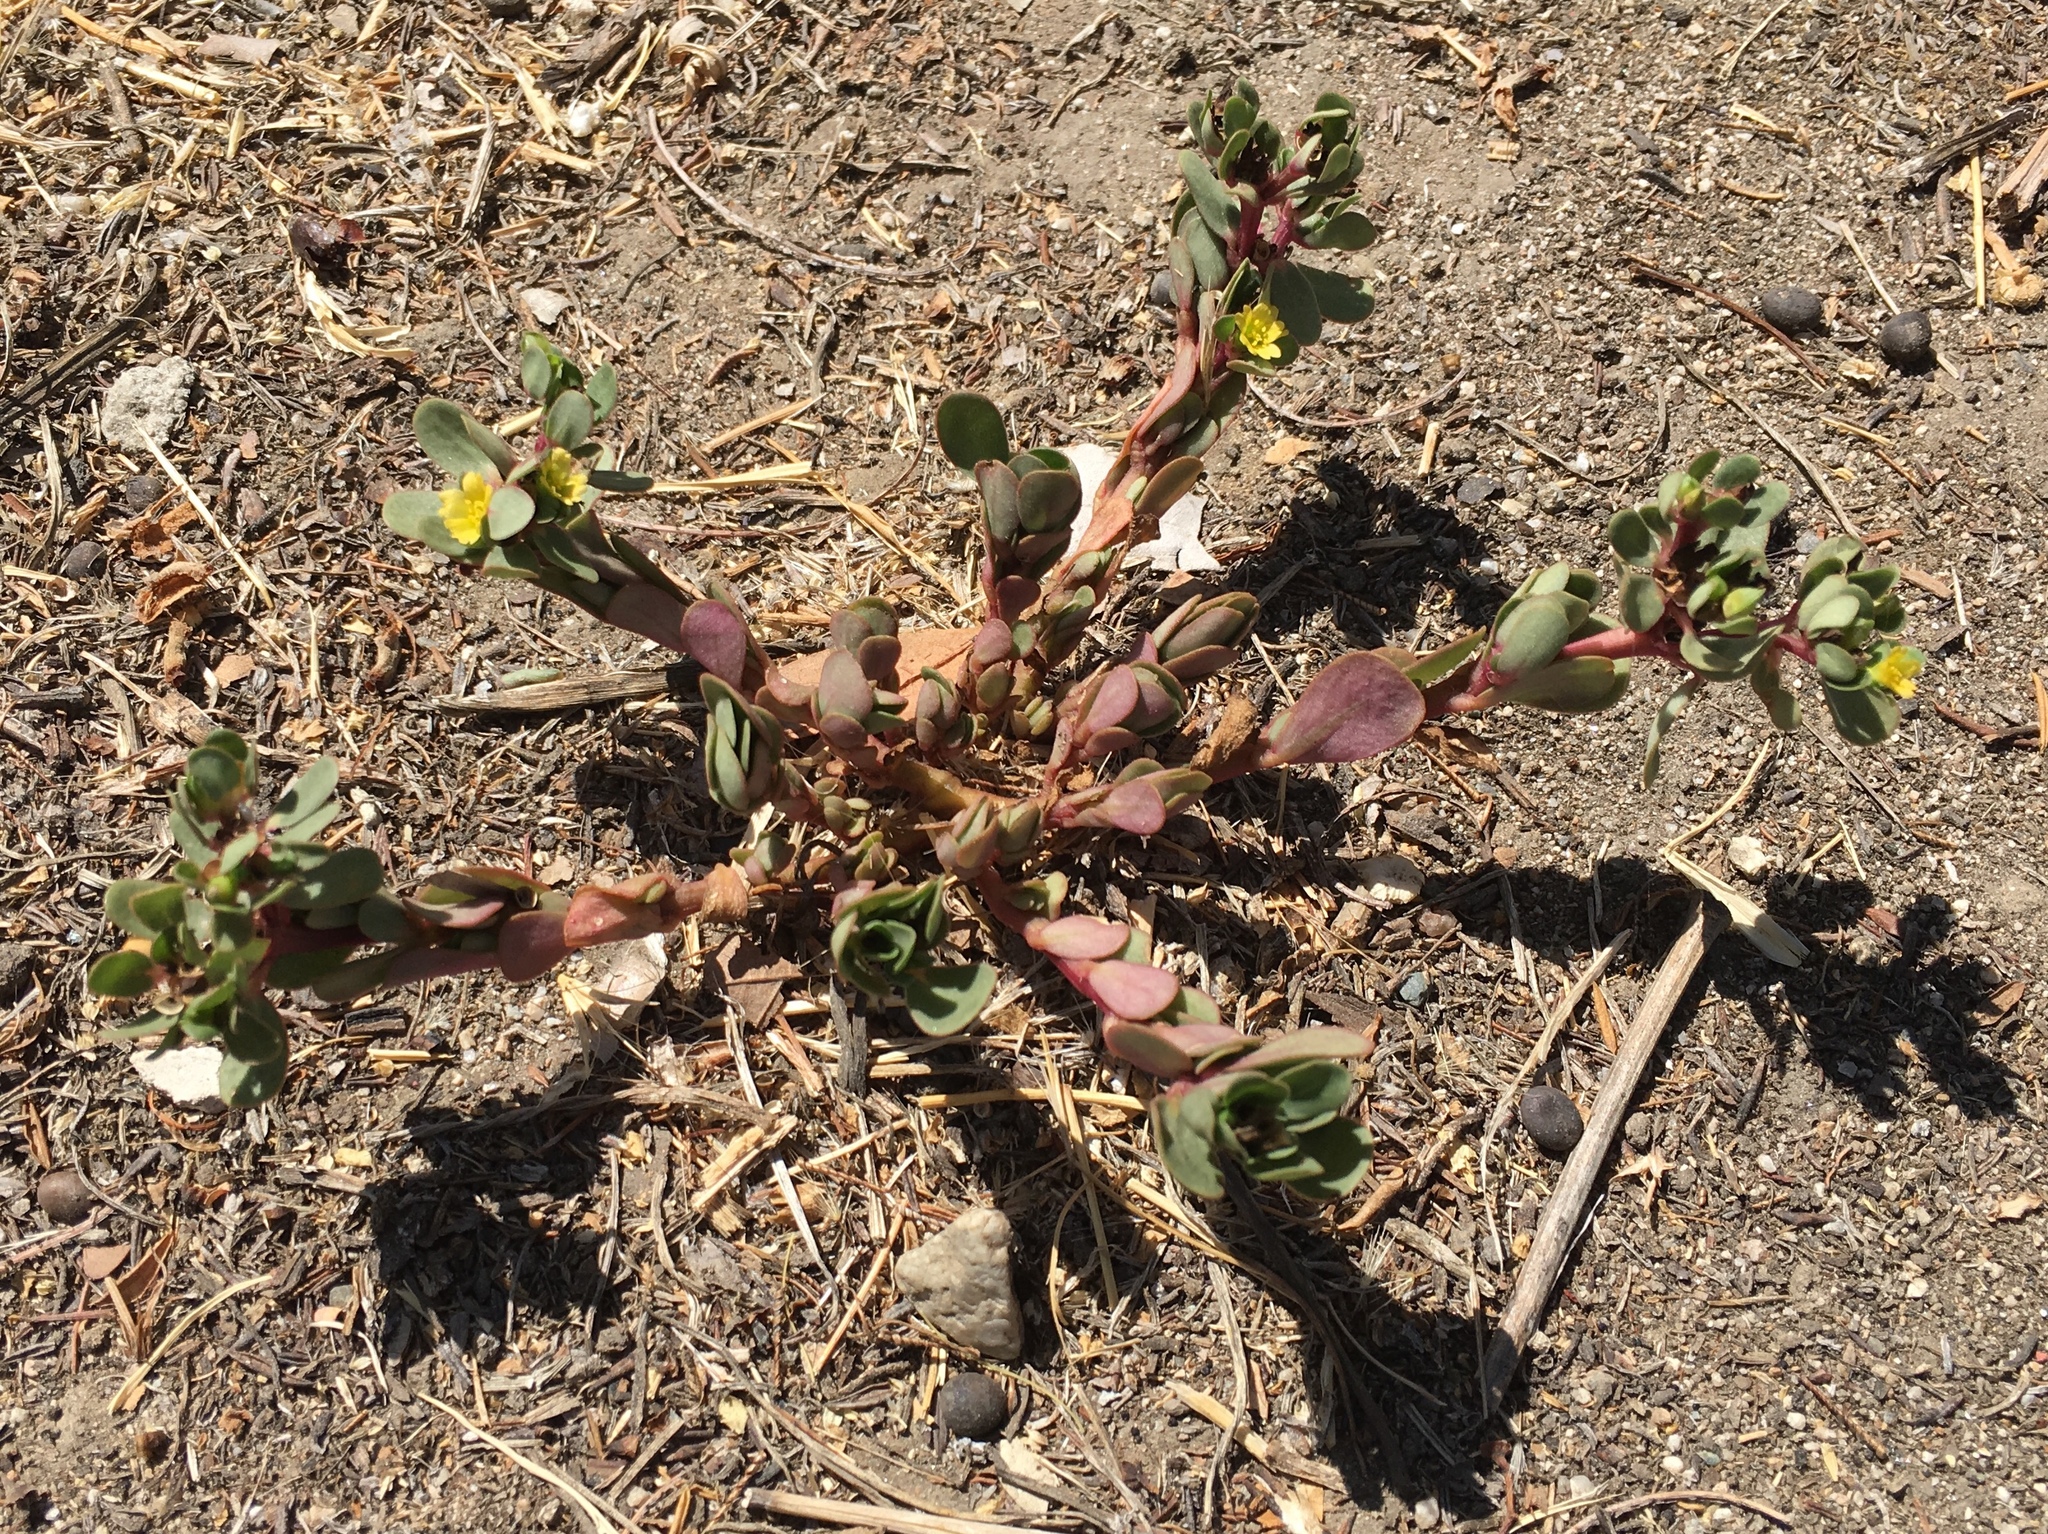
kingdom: Plantae
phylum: Tracheophyta
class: Magnoliopsida
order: Caryophyllales
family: Portulacaceae
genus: Portulaca
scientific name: Portulaca oleracea
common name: Common purslane
